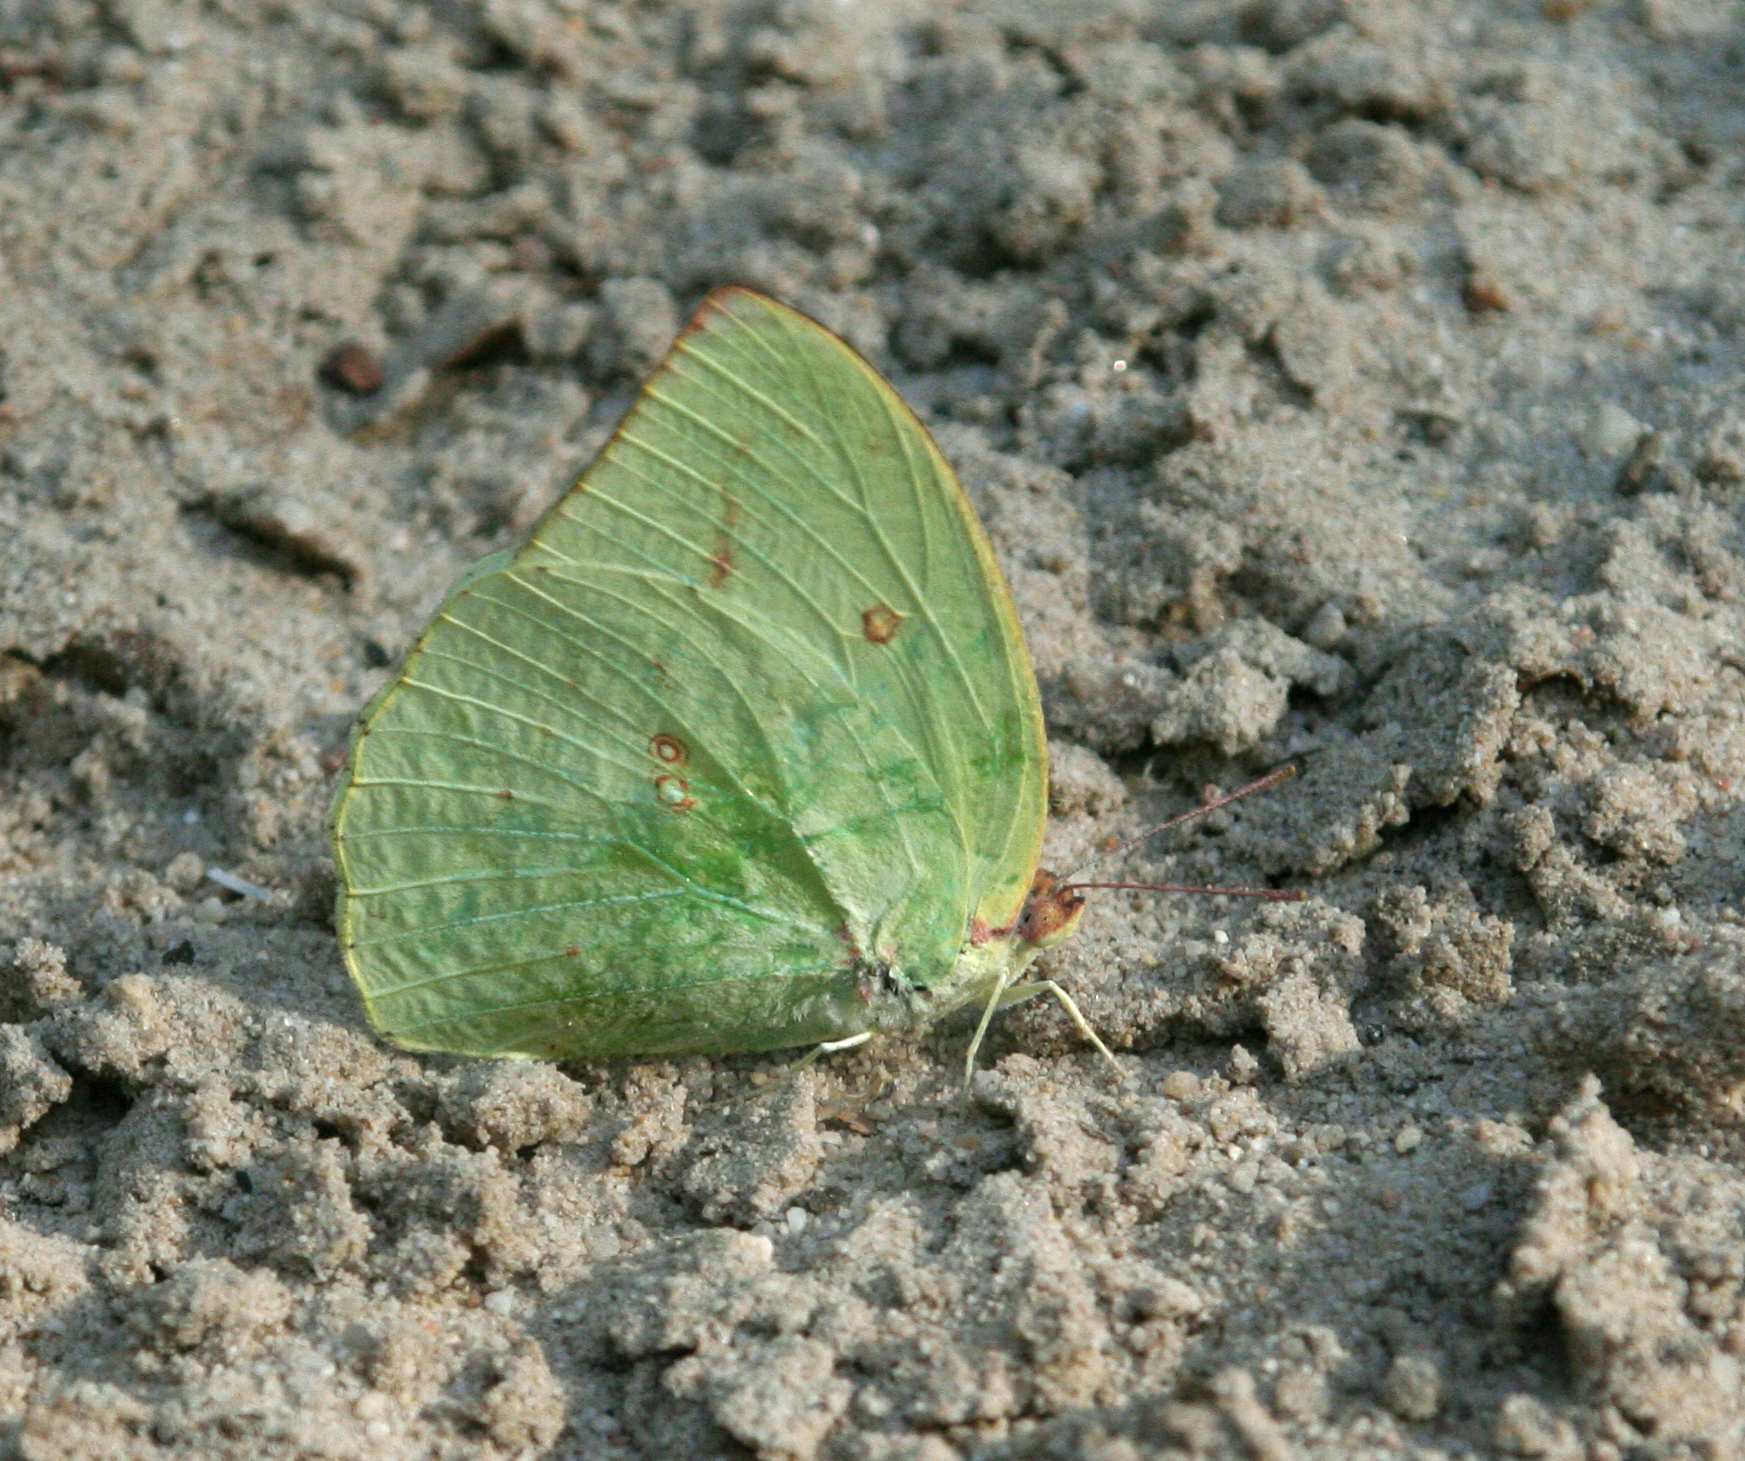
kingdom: Animalia
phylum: Arthropoda
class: Insecta
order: Lepidoptera
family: Pieridae
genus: Catopsilia
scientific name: Catopsilia pomona
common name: Common emigrant
